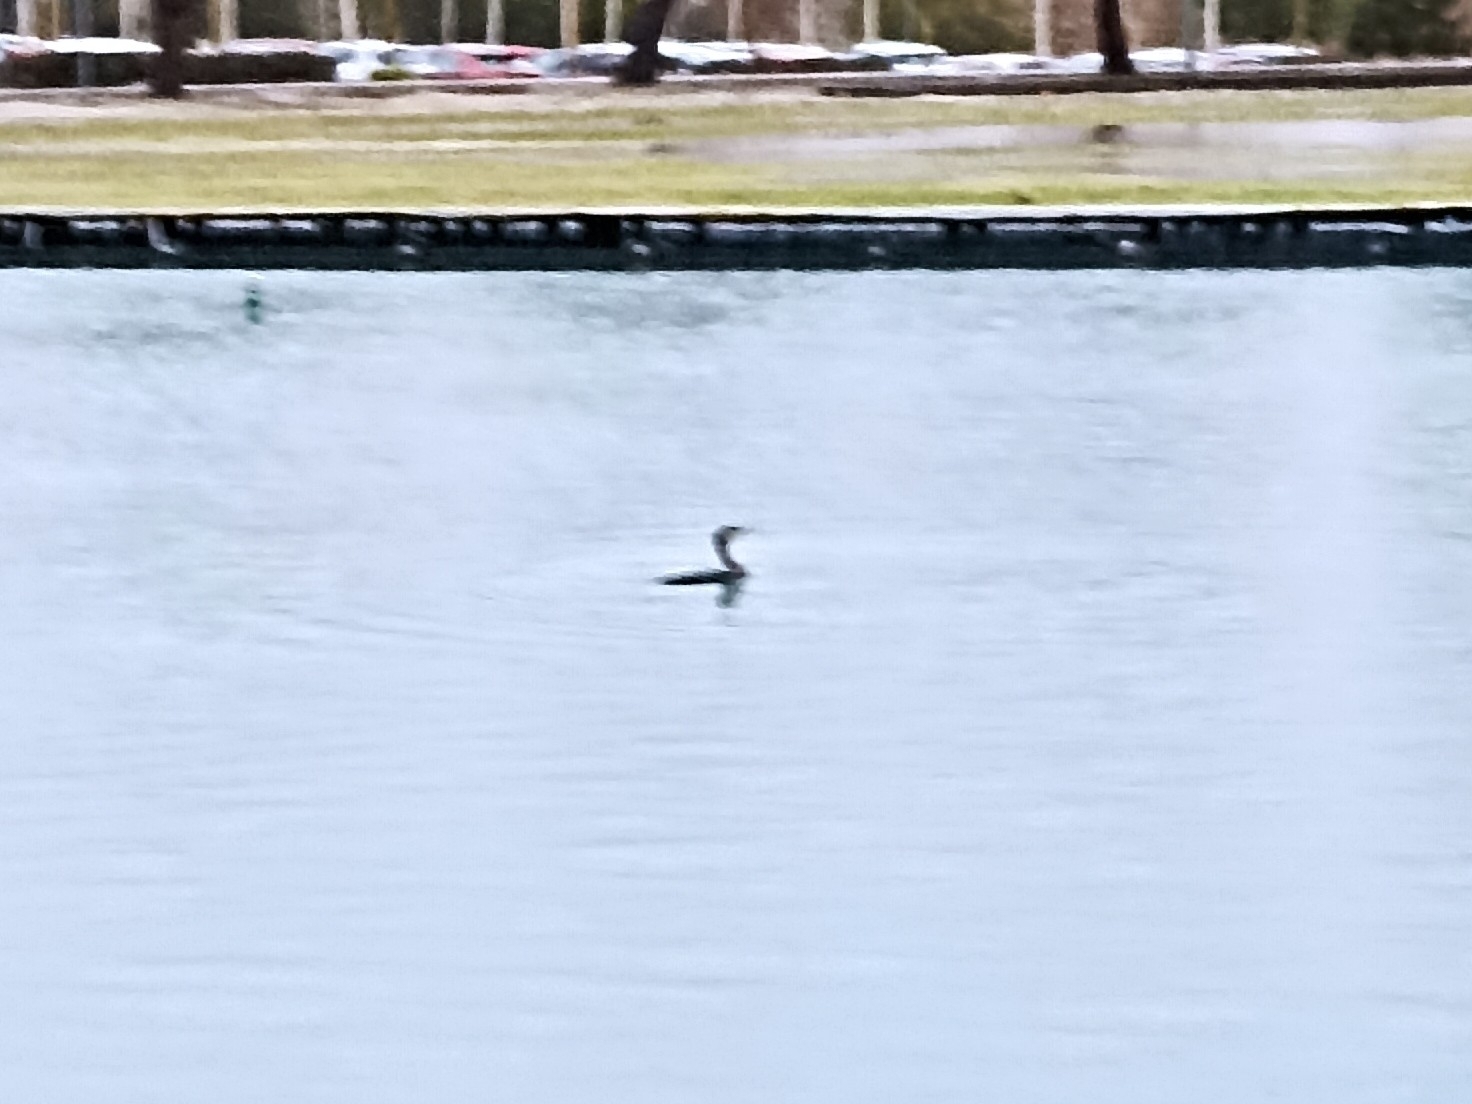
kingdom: Animalia
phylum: Chordata
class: Aves
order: Suliformes
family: Phalacrocoracidae
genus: Phalacrocorax
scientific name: Phalacrocorax carbo
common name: Great cormorant
